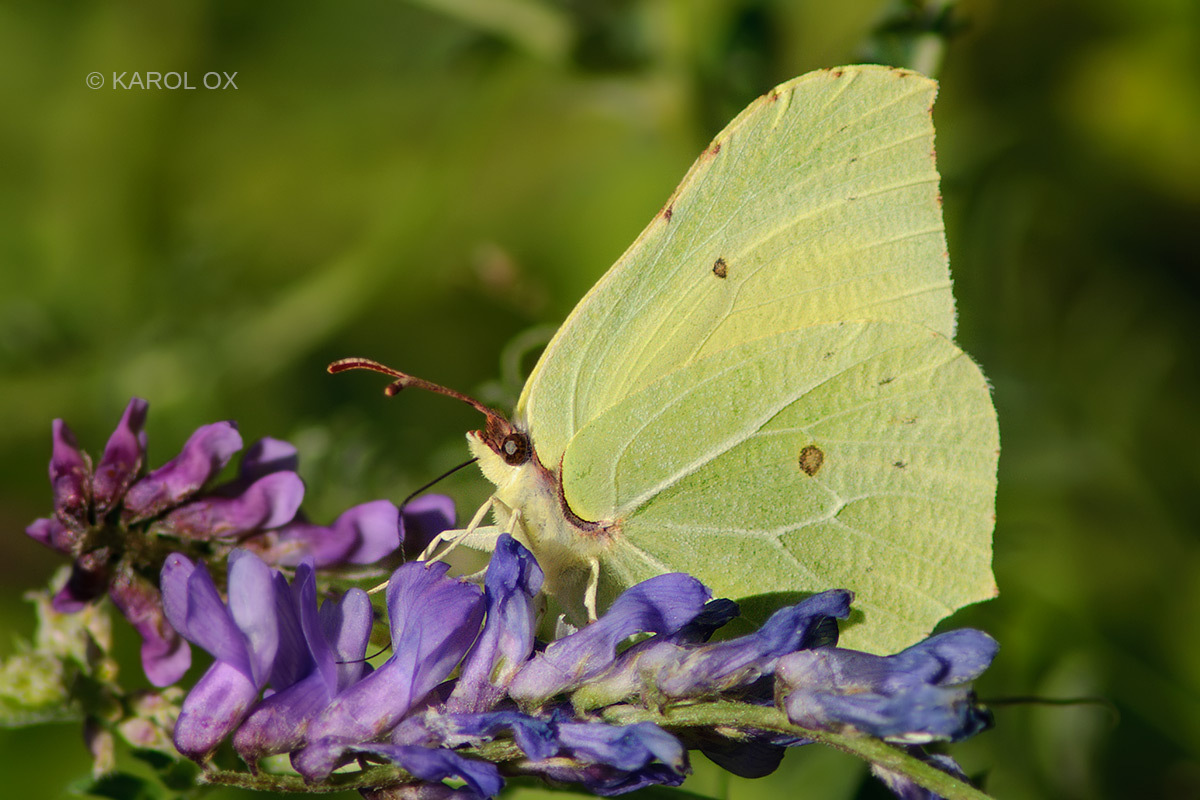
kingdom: Animalia
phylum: Arthropoda
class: Insecta
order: Lepidoptera
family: Pieridae
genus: Gonepteryx
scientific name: Gonepteryx rhamni
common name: Brimstone
